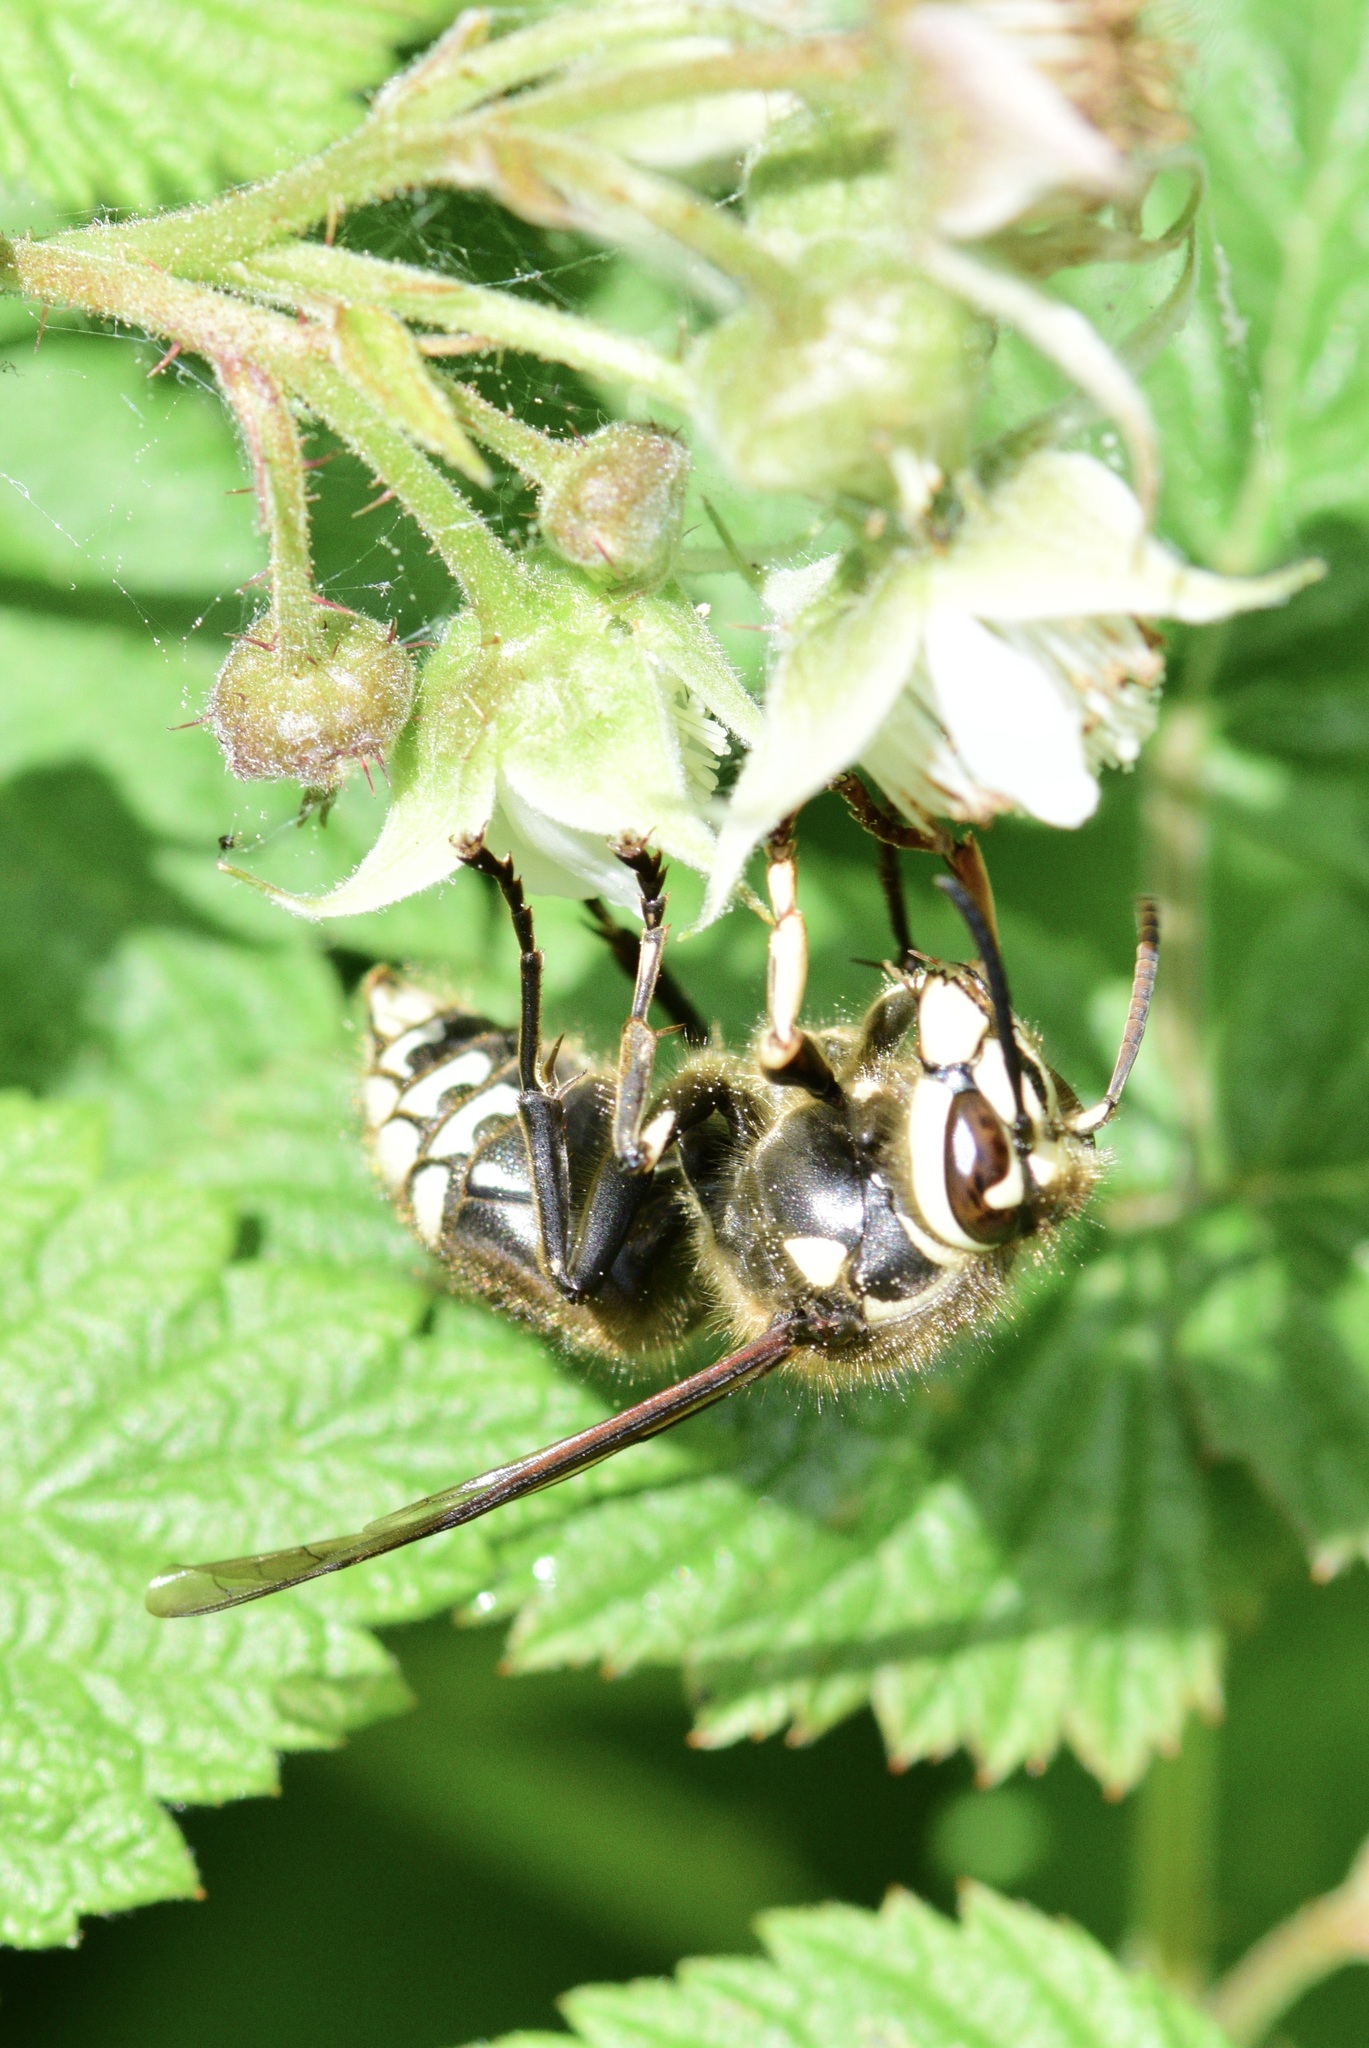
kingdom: Animalia
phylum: Arthropoda
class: Insecta
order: Hymenoptera
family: Vespidae
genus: Dolichovespula
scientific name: Dolichovespula maculata
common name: Bald-faced hornet
